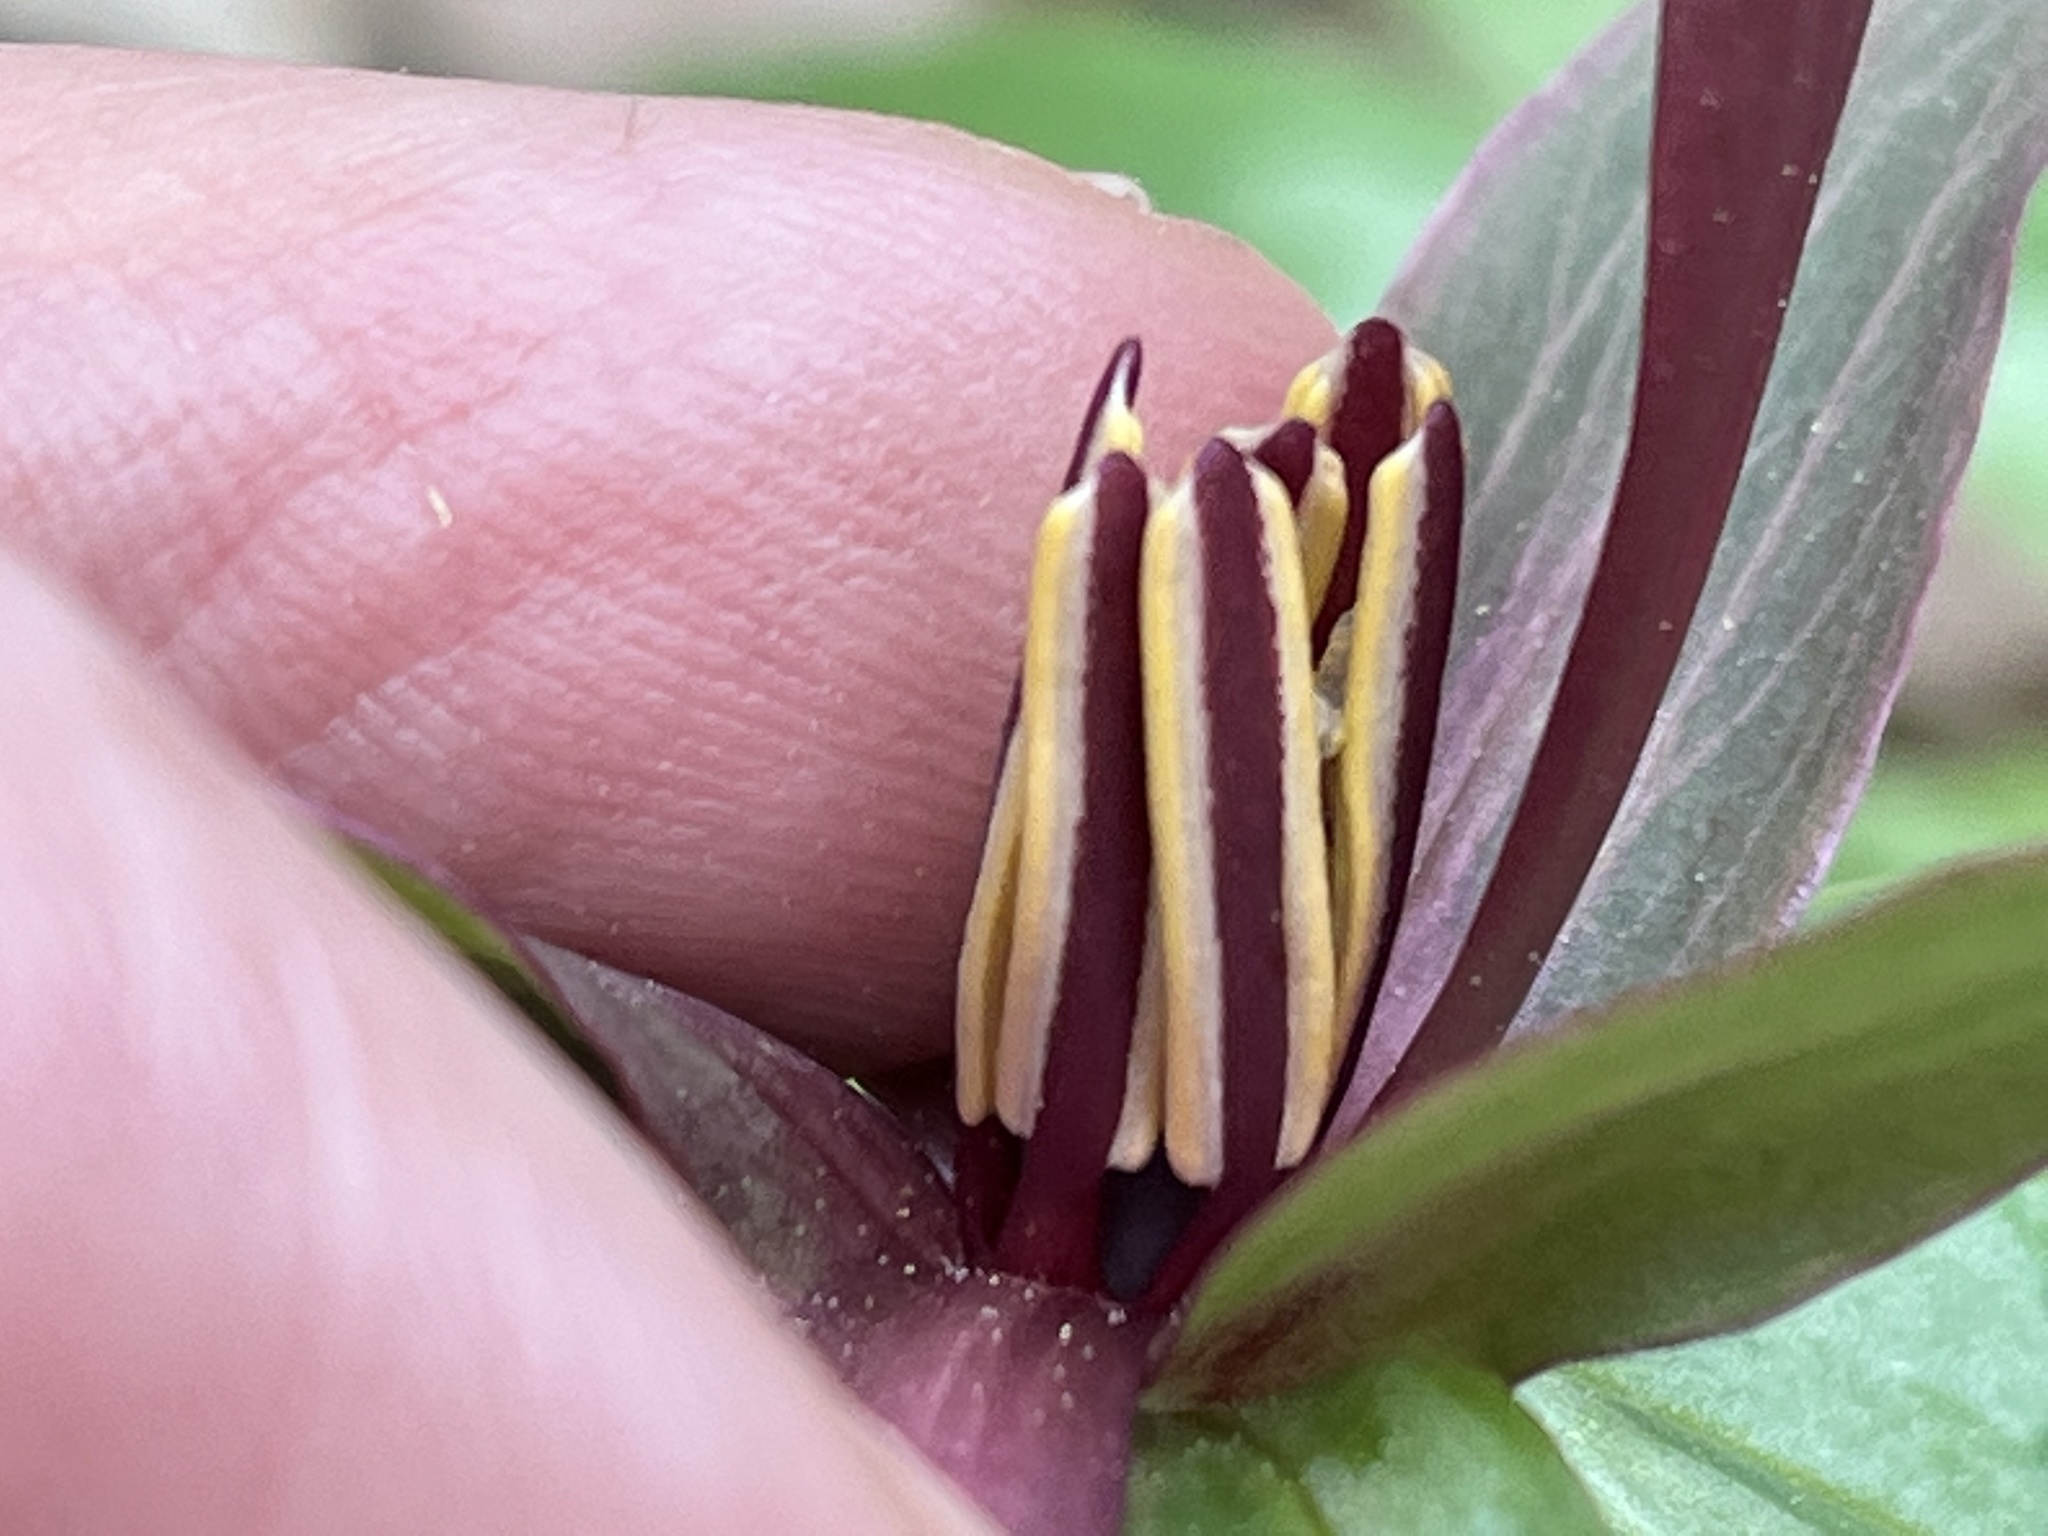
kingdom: Plantae
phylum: Tracheophyta
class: Liliopsida
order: Liliales
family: Melanthiaceae
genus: Trillium
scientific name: Trillium cuneatum
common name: Cuneate trillium
